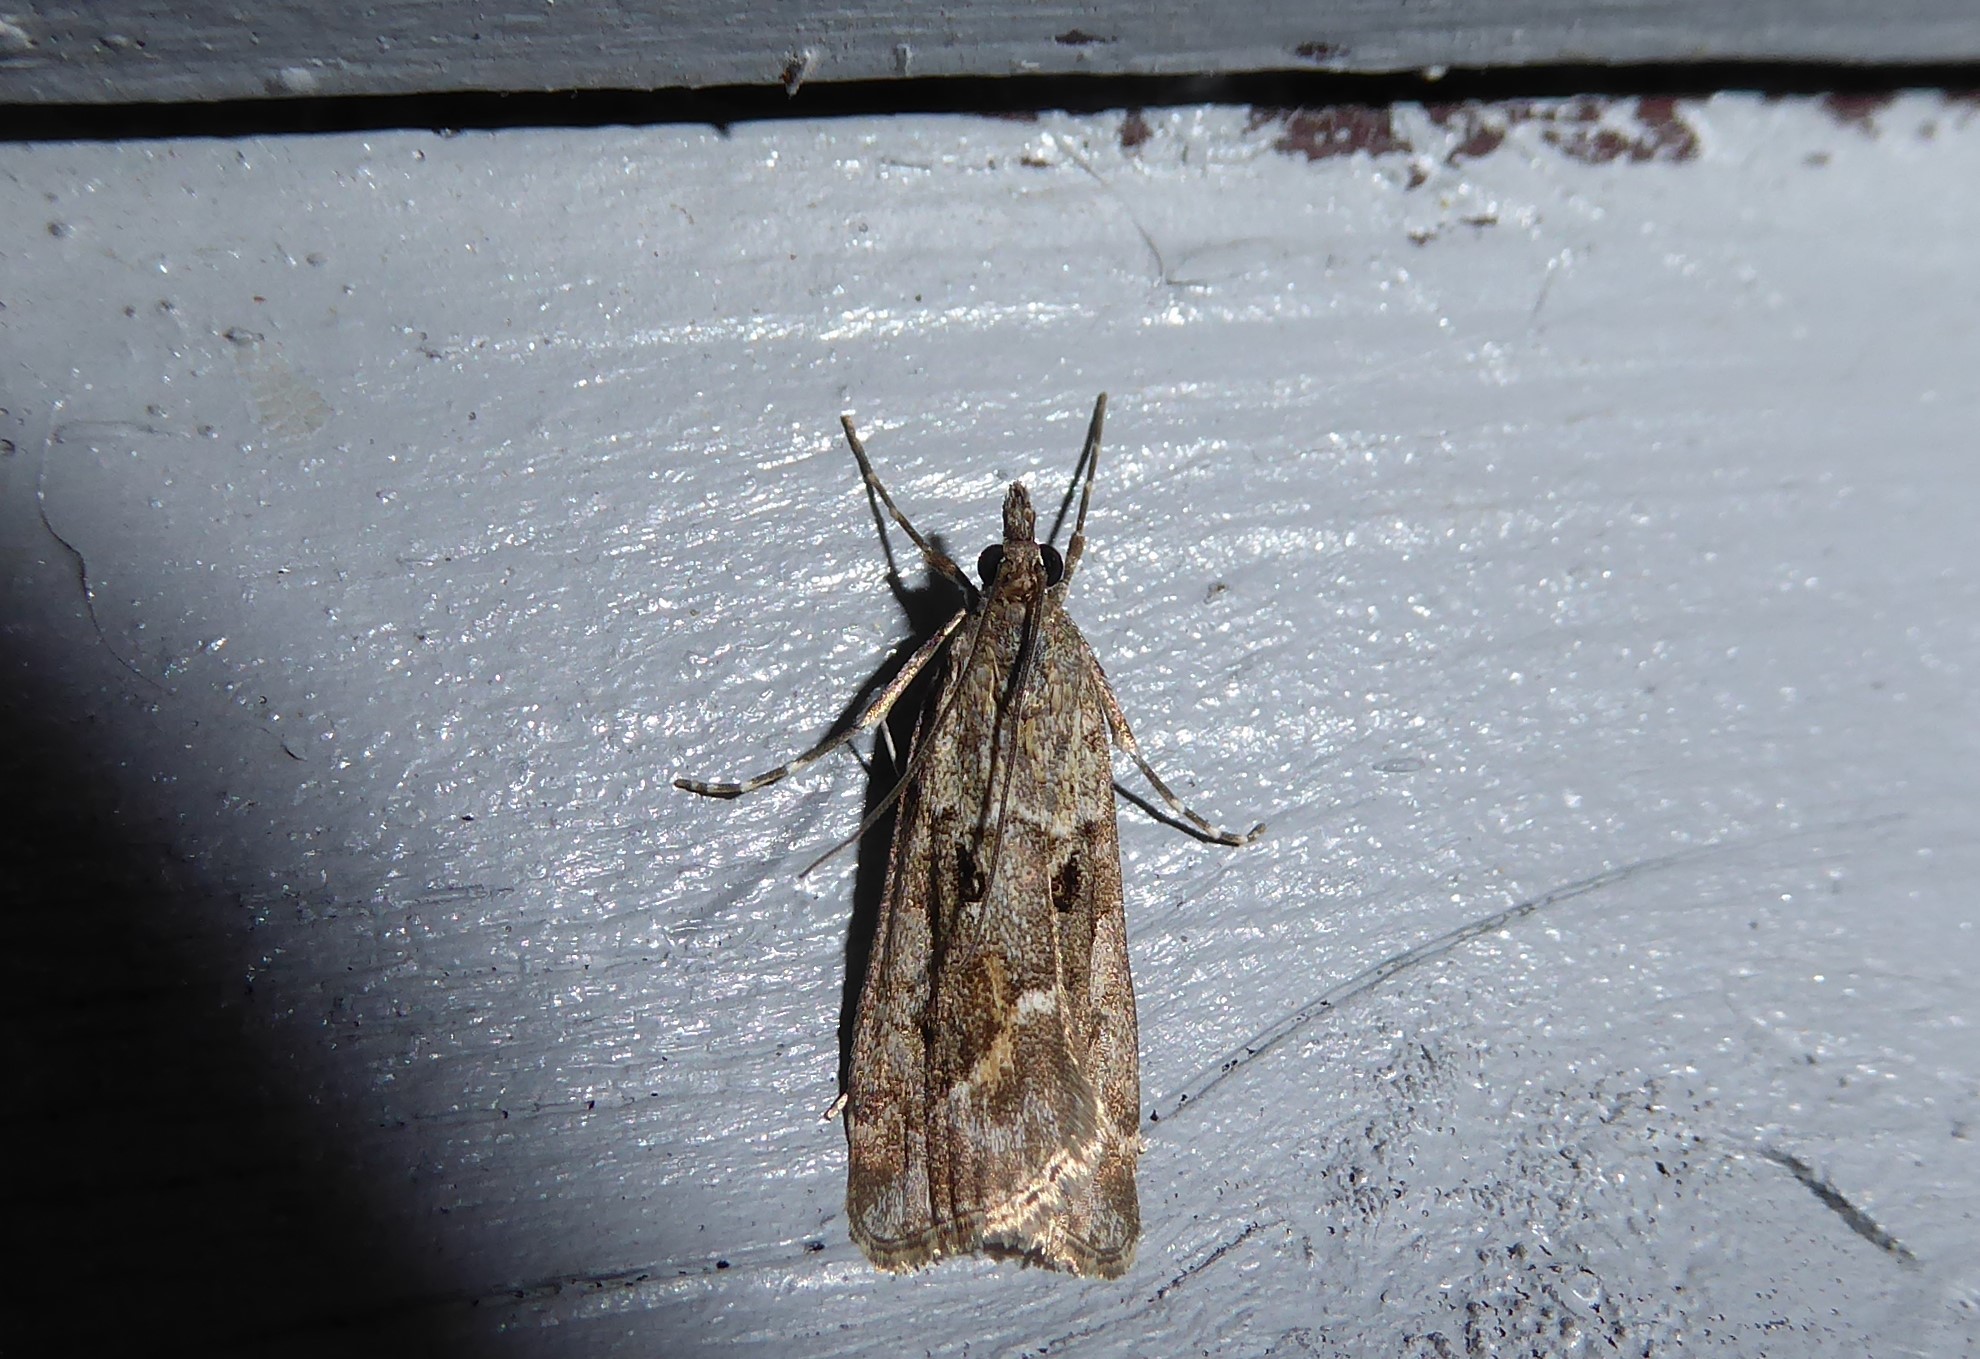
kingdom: Animalia
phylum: Arthropoda
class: Insecta
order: Lepidoptera
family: Crambidae
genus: Eudonia
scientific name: Eudonia submarginalis
